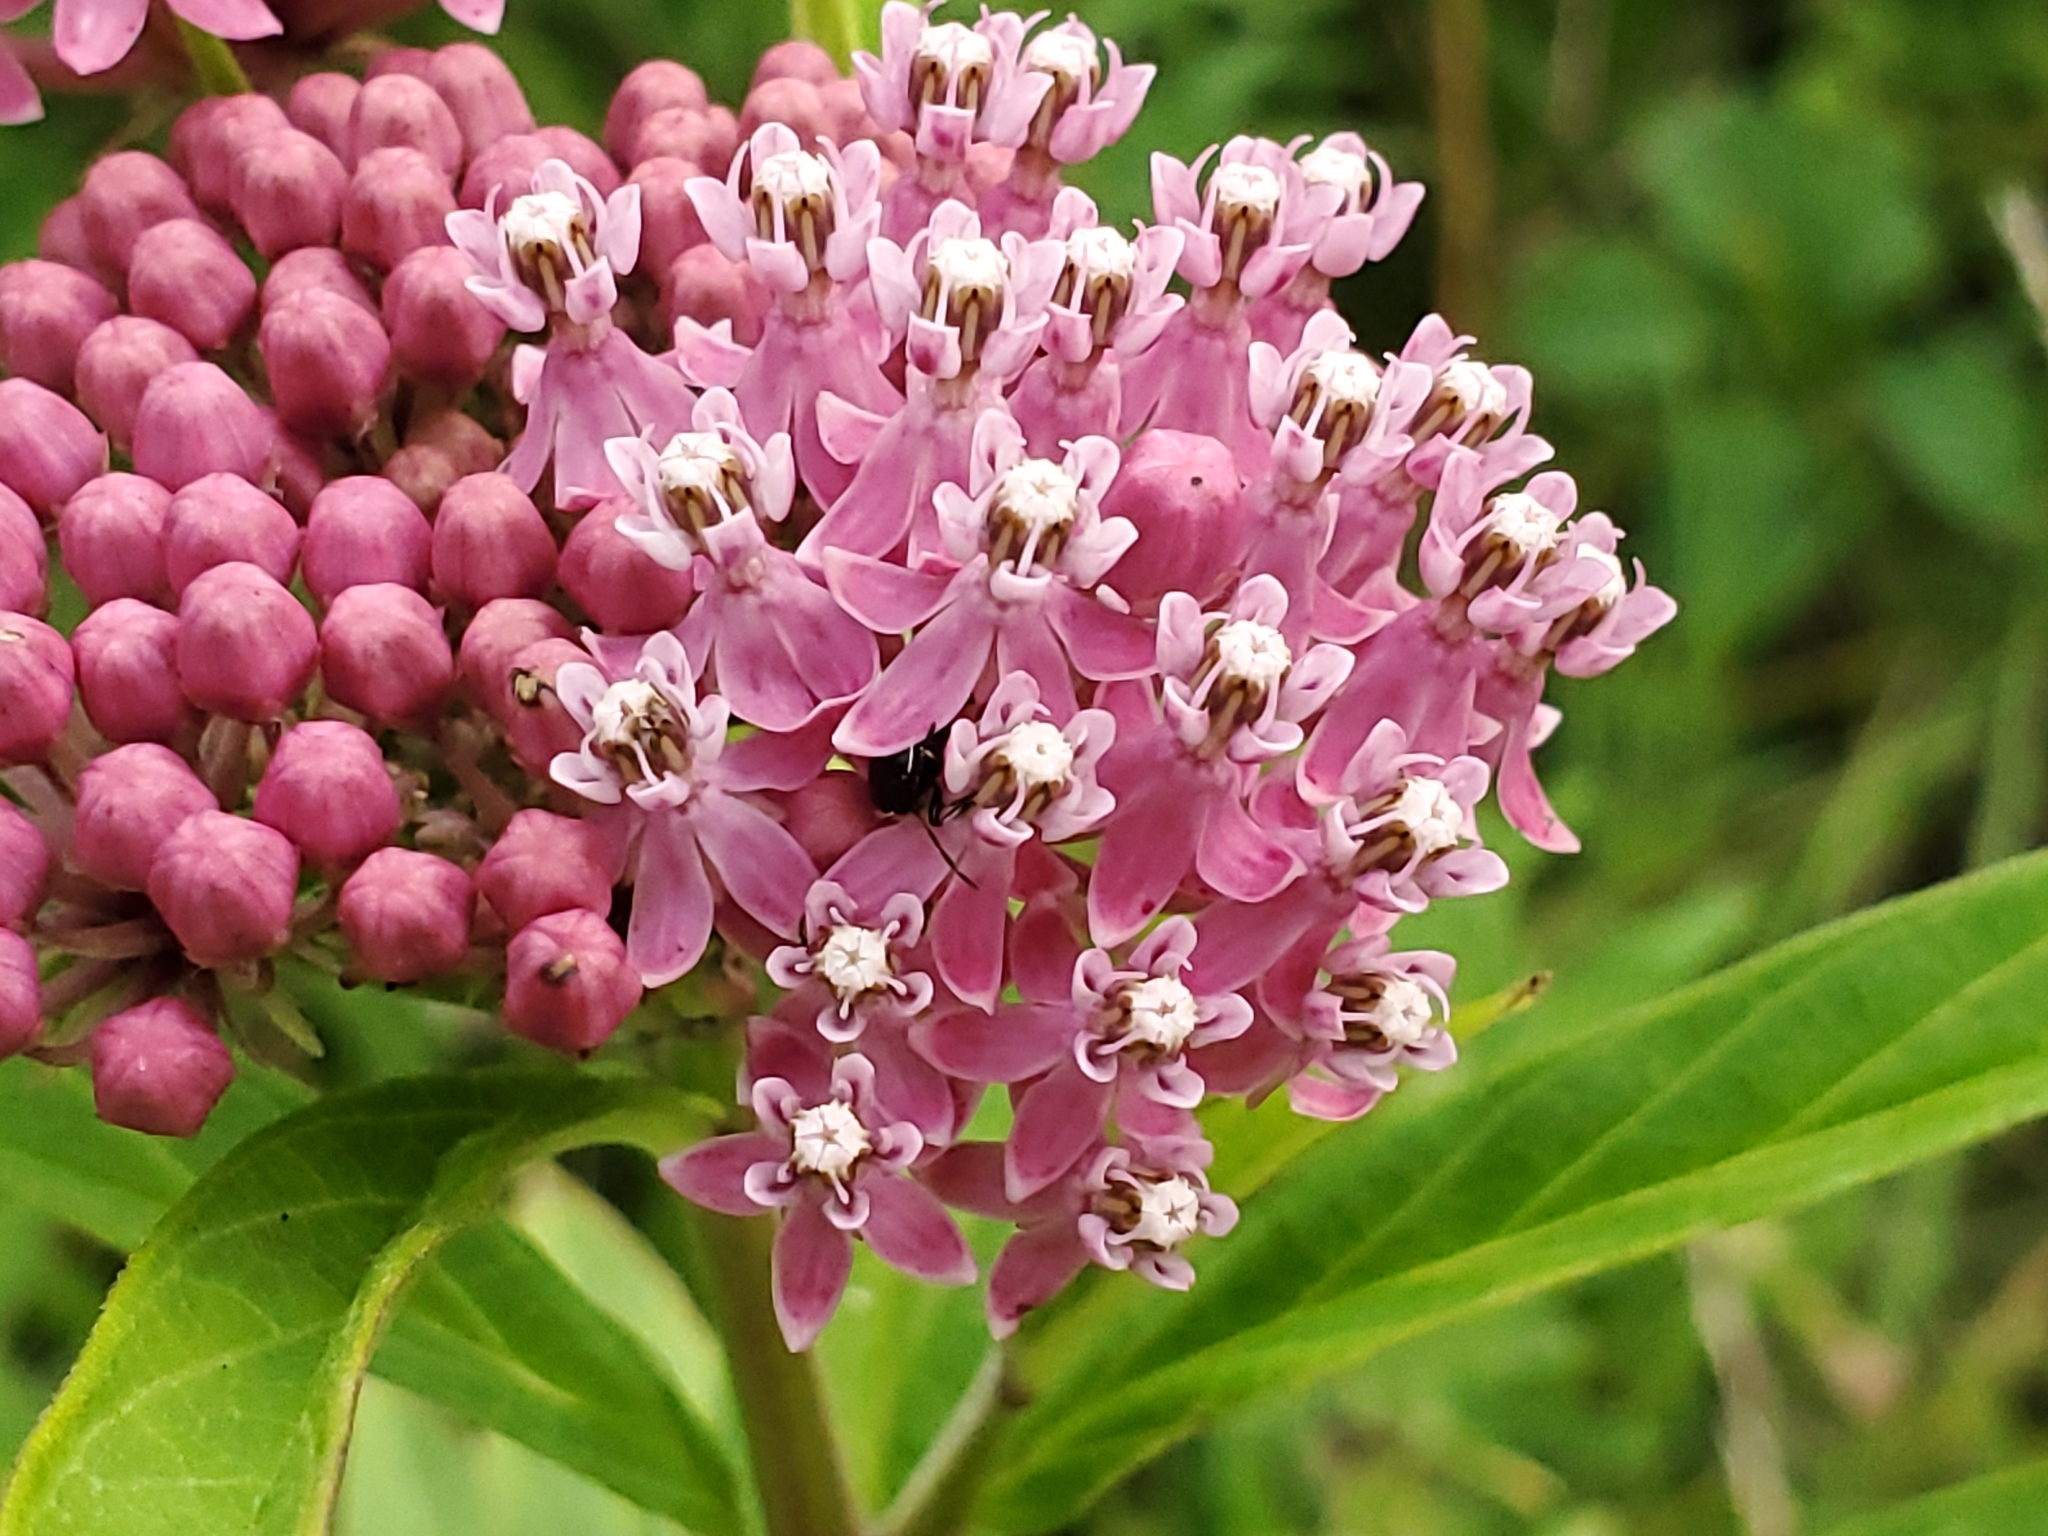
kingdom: Plantae
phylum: Tracheophyta
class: Magnoliopsida
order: Gentianales
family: Apocynaceae
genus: Asclepias
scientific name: Asclepias incarnata
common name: Swamp milkweed
